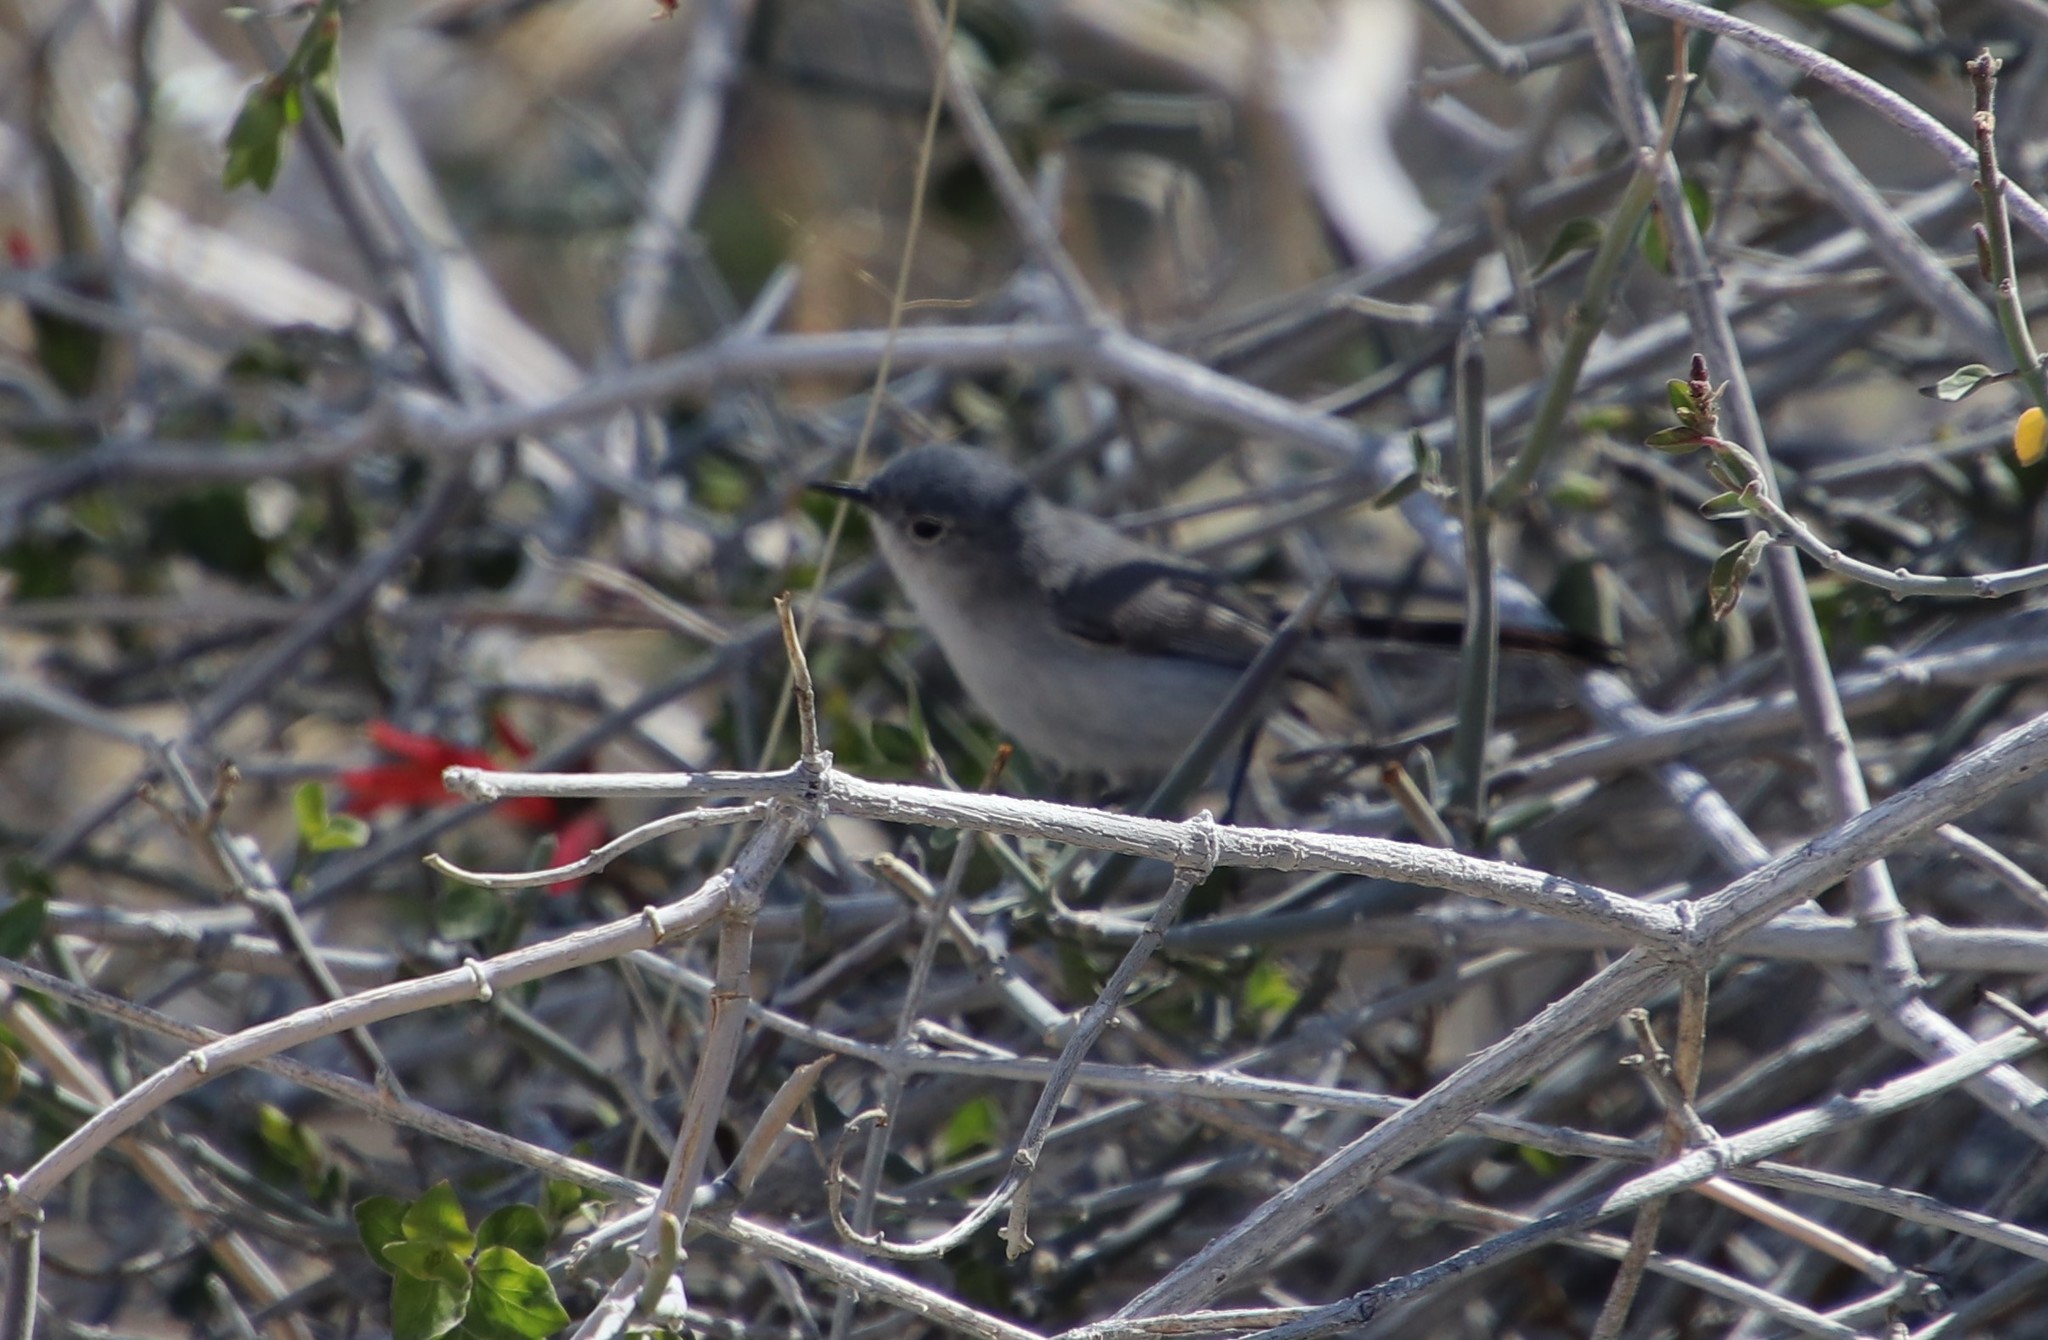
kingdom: Animalia
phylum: Chordata
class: Aves
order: Passeriformes
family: Polioptilidae
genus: Polioptila
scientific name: Polioptila melanura
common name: Black-tailed gnatcatcher
